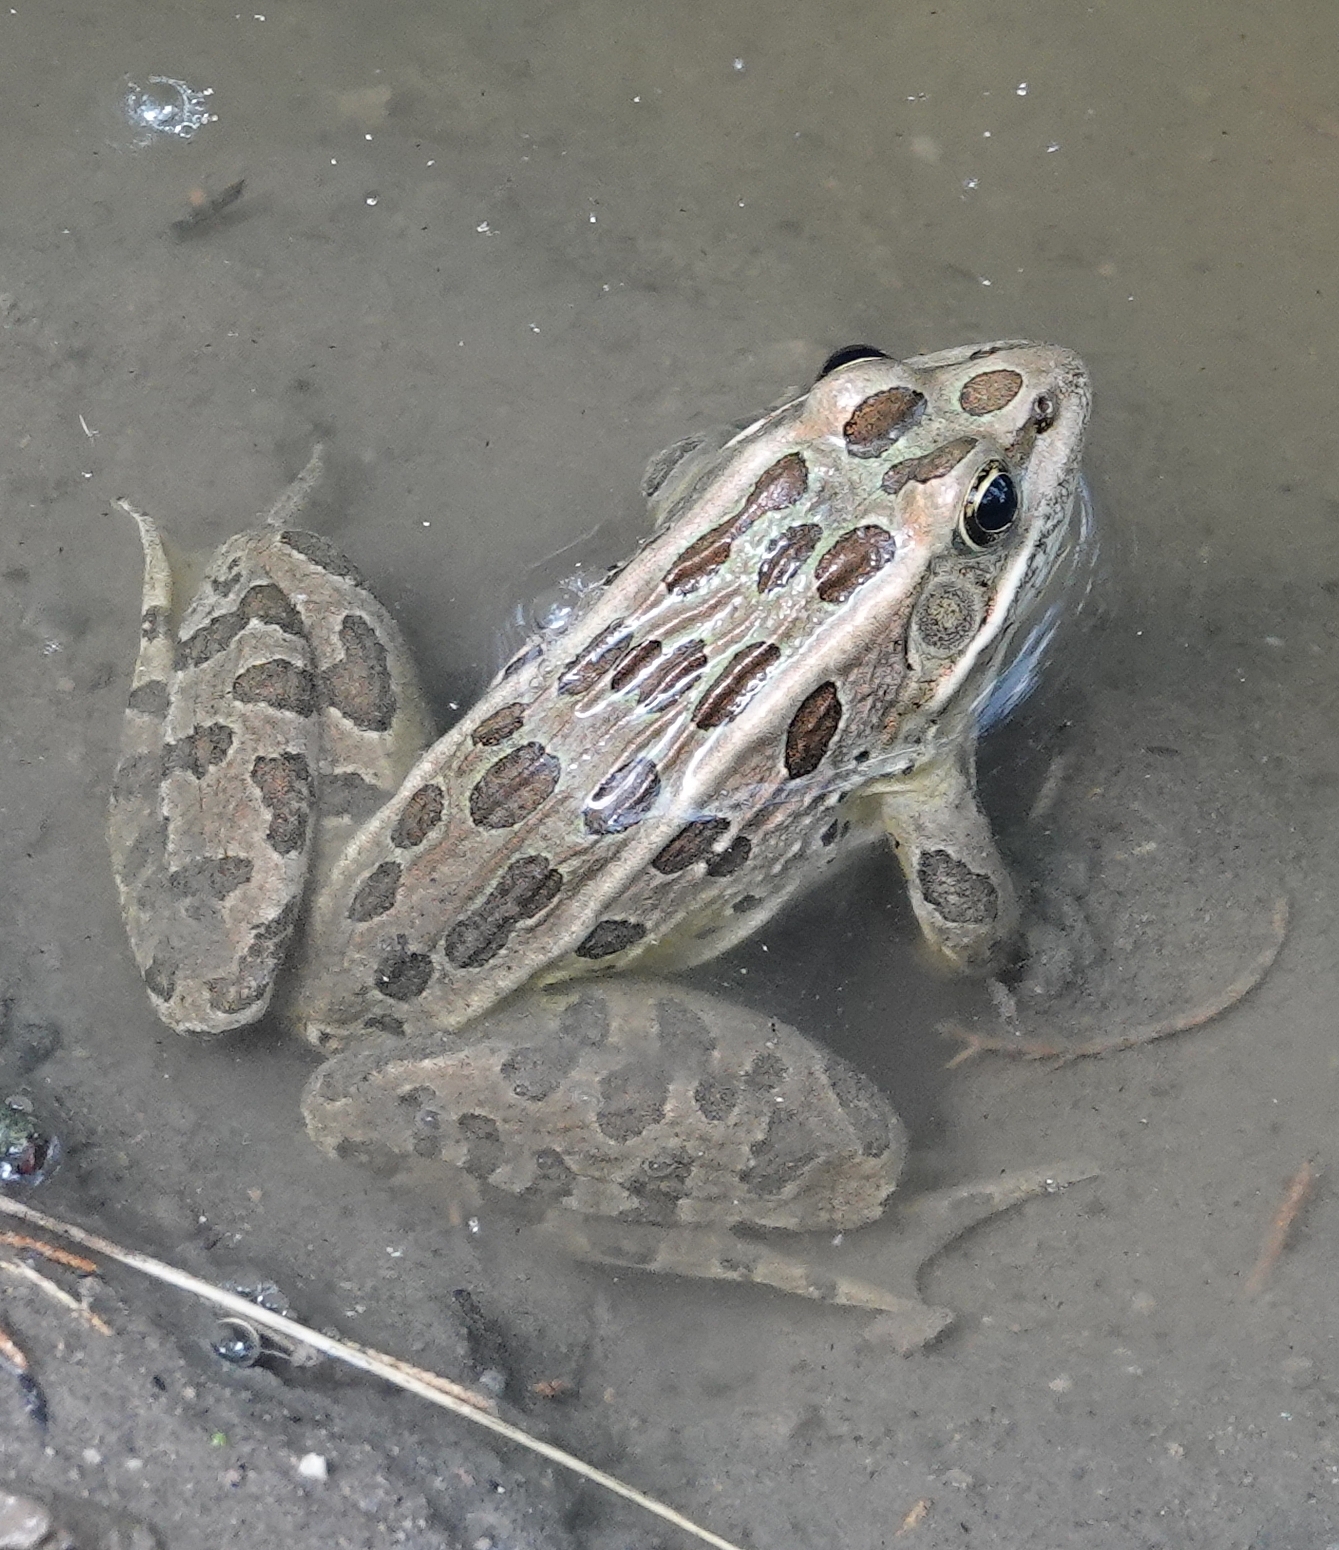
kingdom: Animalia
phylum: Chordata
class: Amphibia
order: Anura
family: Ranidae
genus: Lithobates
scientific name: Lithobates pipiens
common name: Northern leopard frog
